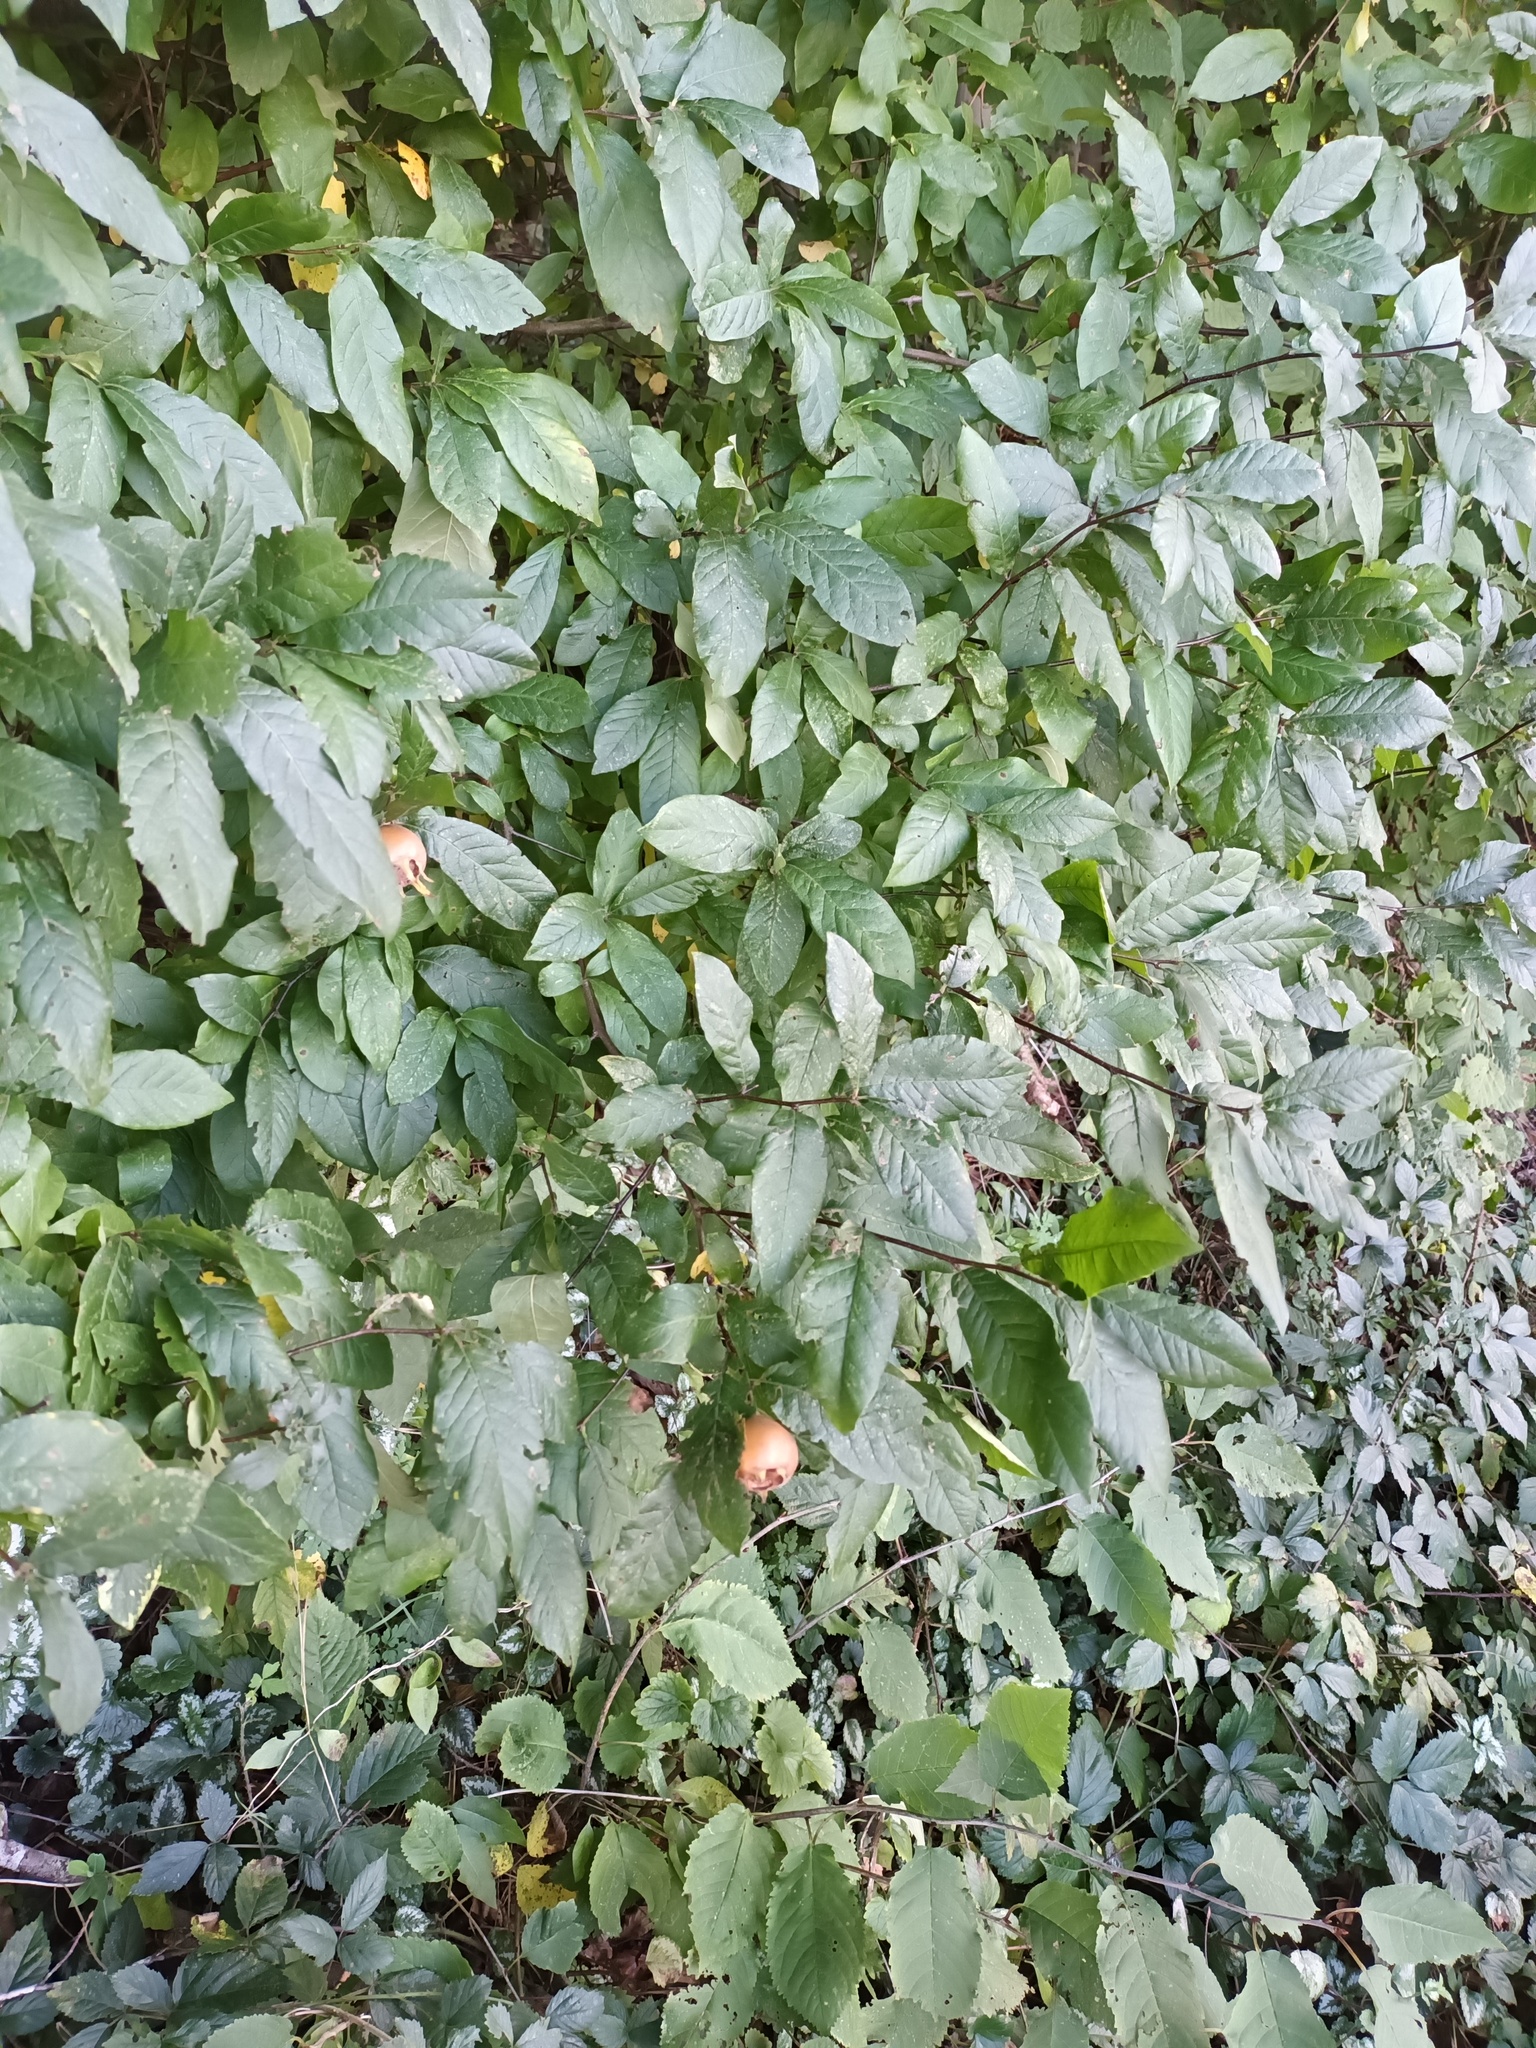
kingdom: Plantae
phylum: Tracheophyta
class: Magnoliopsida
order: Rosales
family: Rosaceae
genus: Mespilus
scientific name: Mespilus germanica
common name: Medlar
